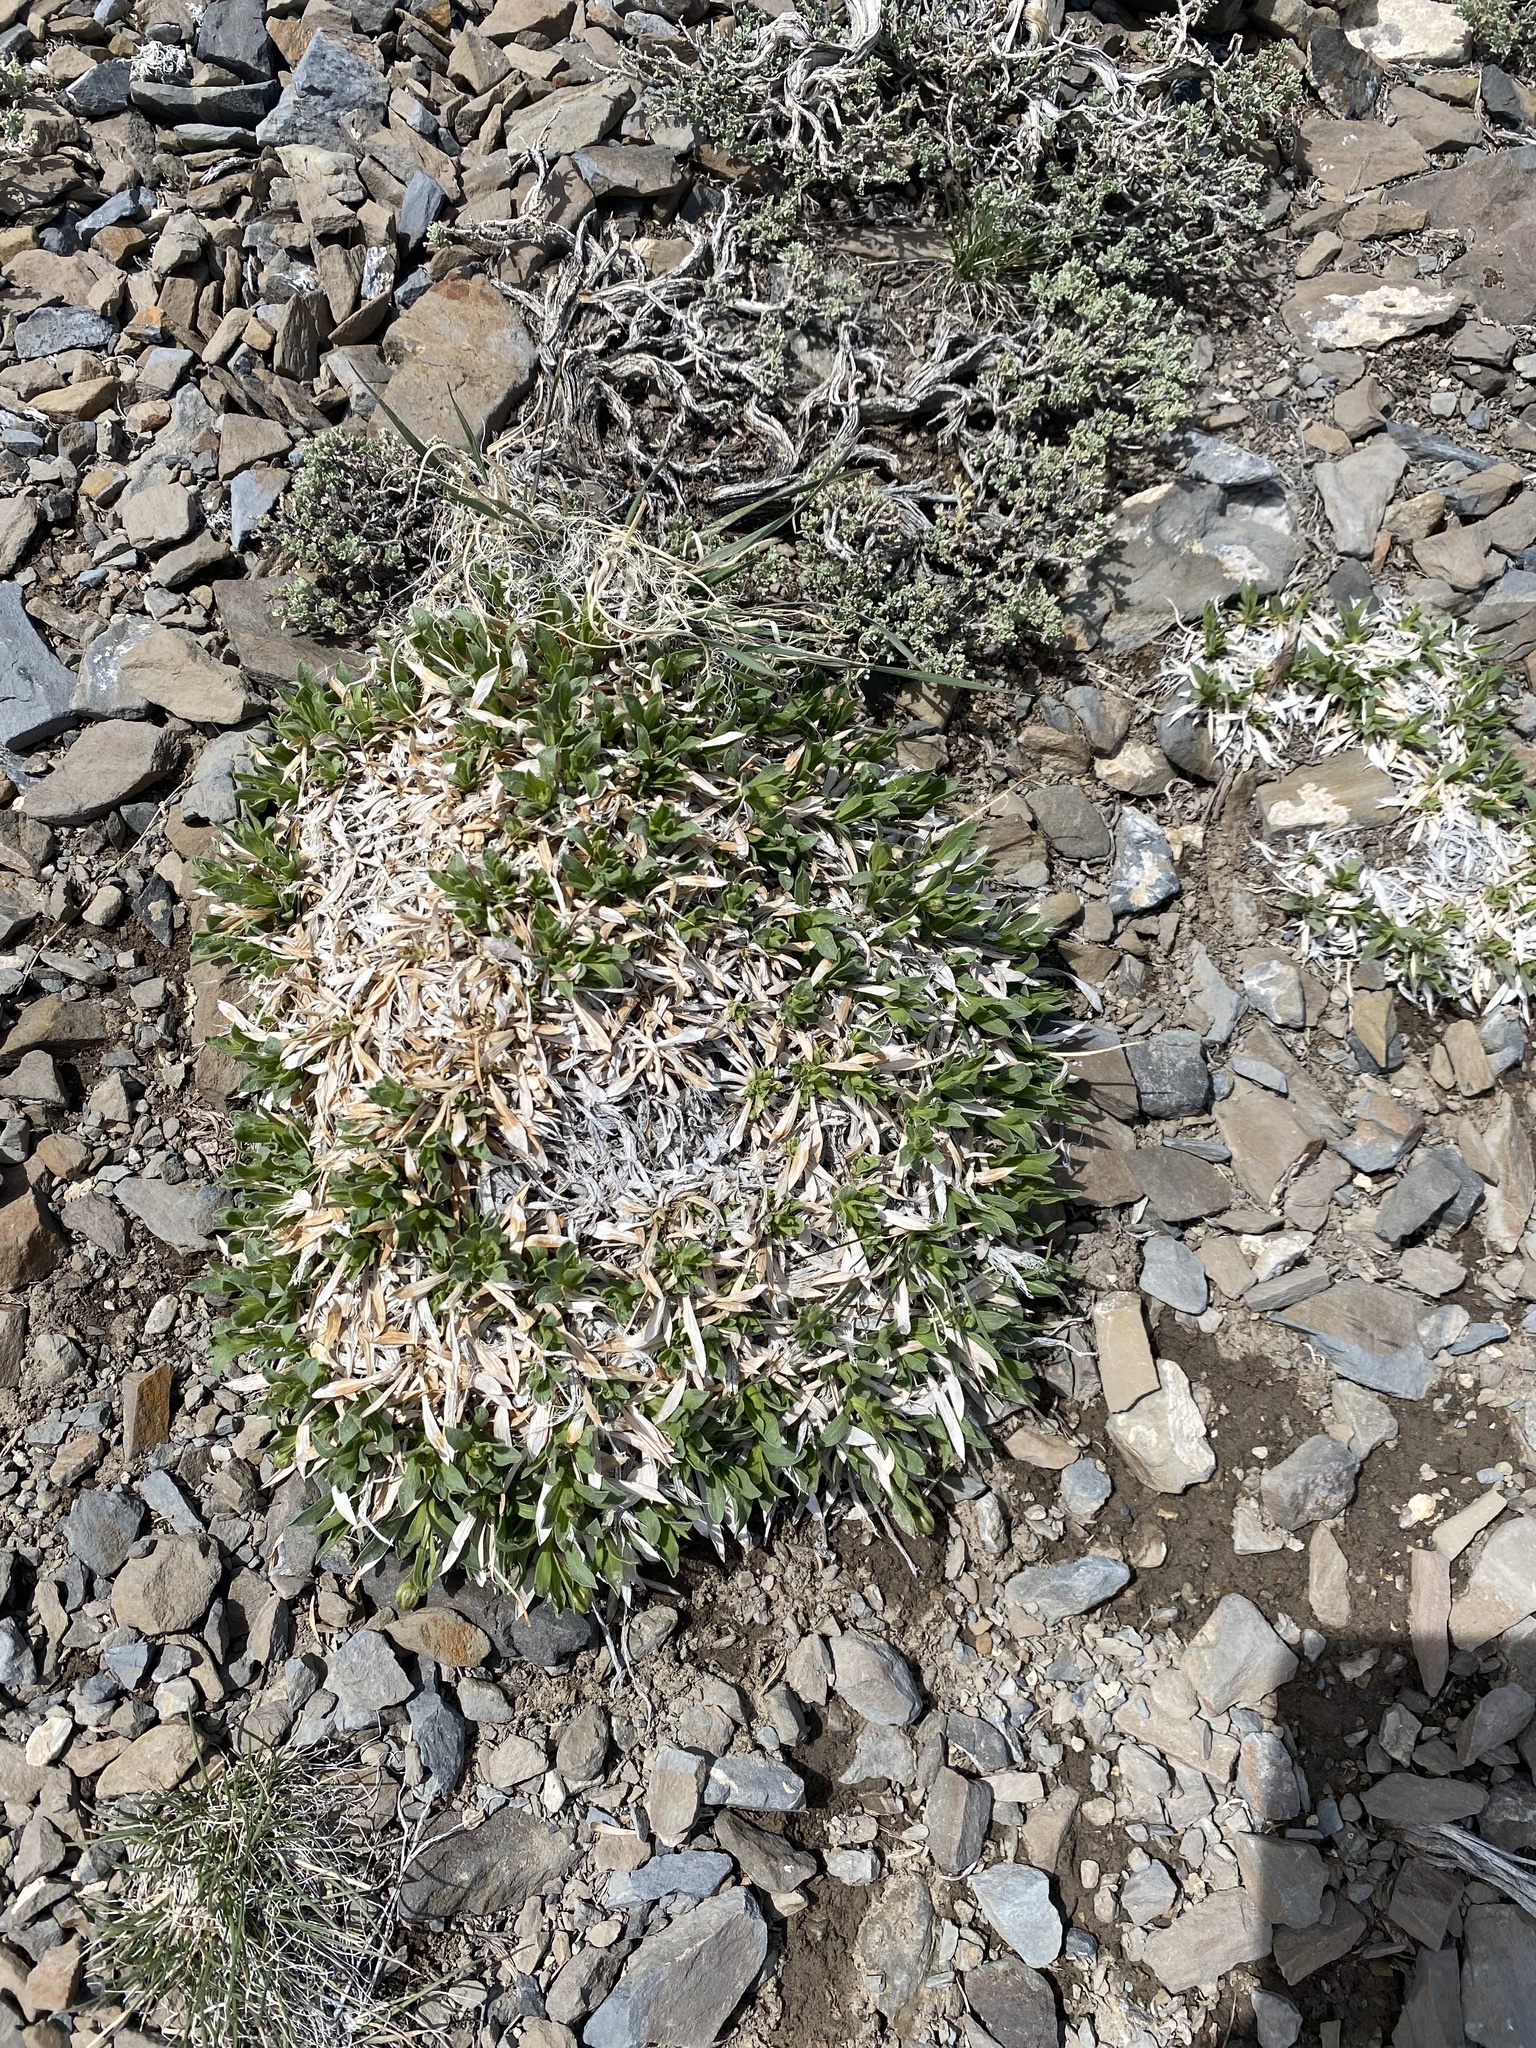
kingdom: Plantae
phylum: Tracheophyta
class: Magnoliopsida
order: Asterales
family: Asteraceae
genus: Stenotus
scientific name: Stenotus acaulis
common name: Stemless goldenweed
